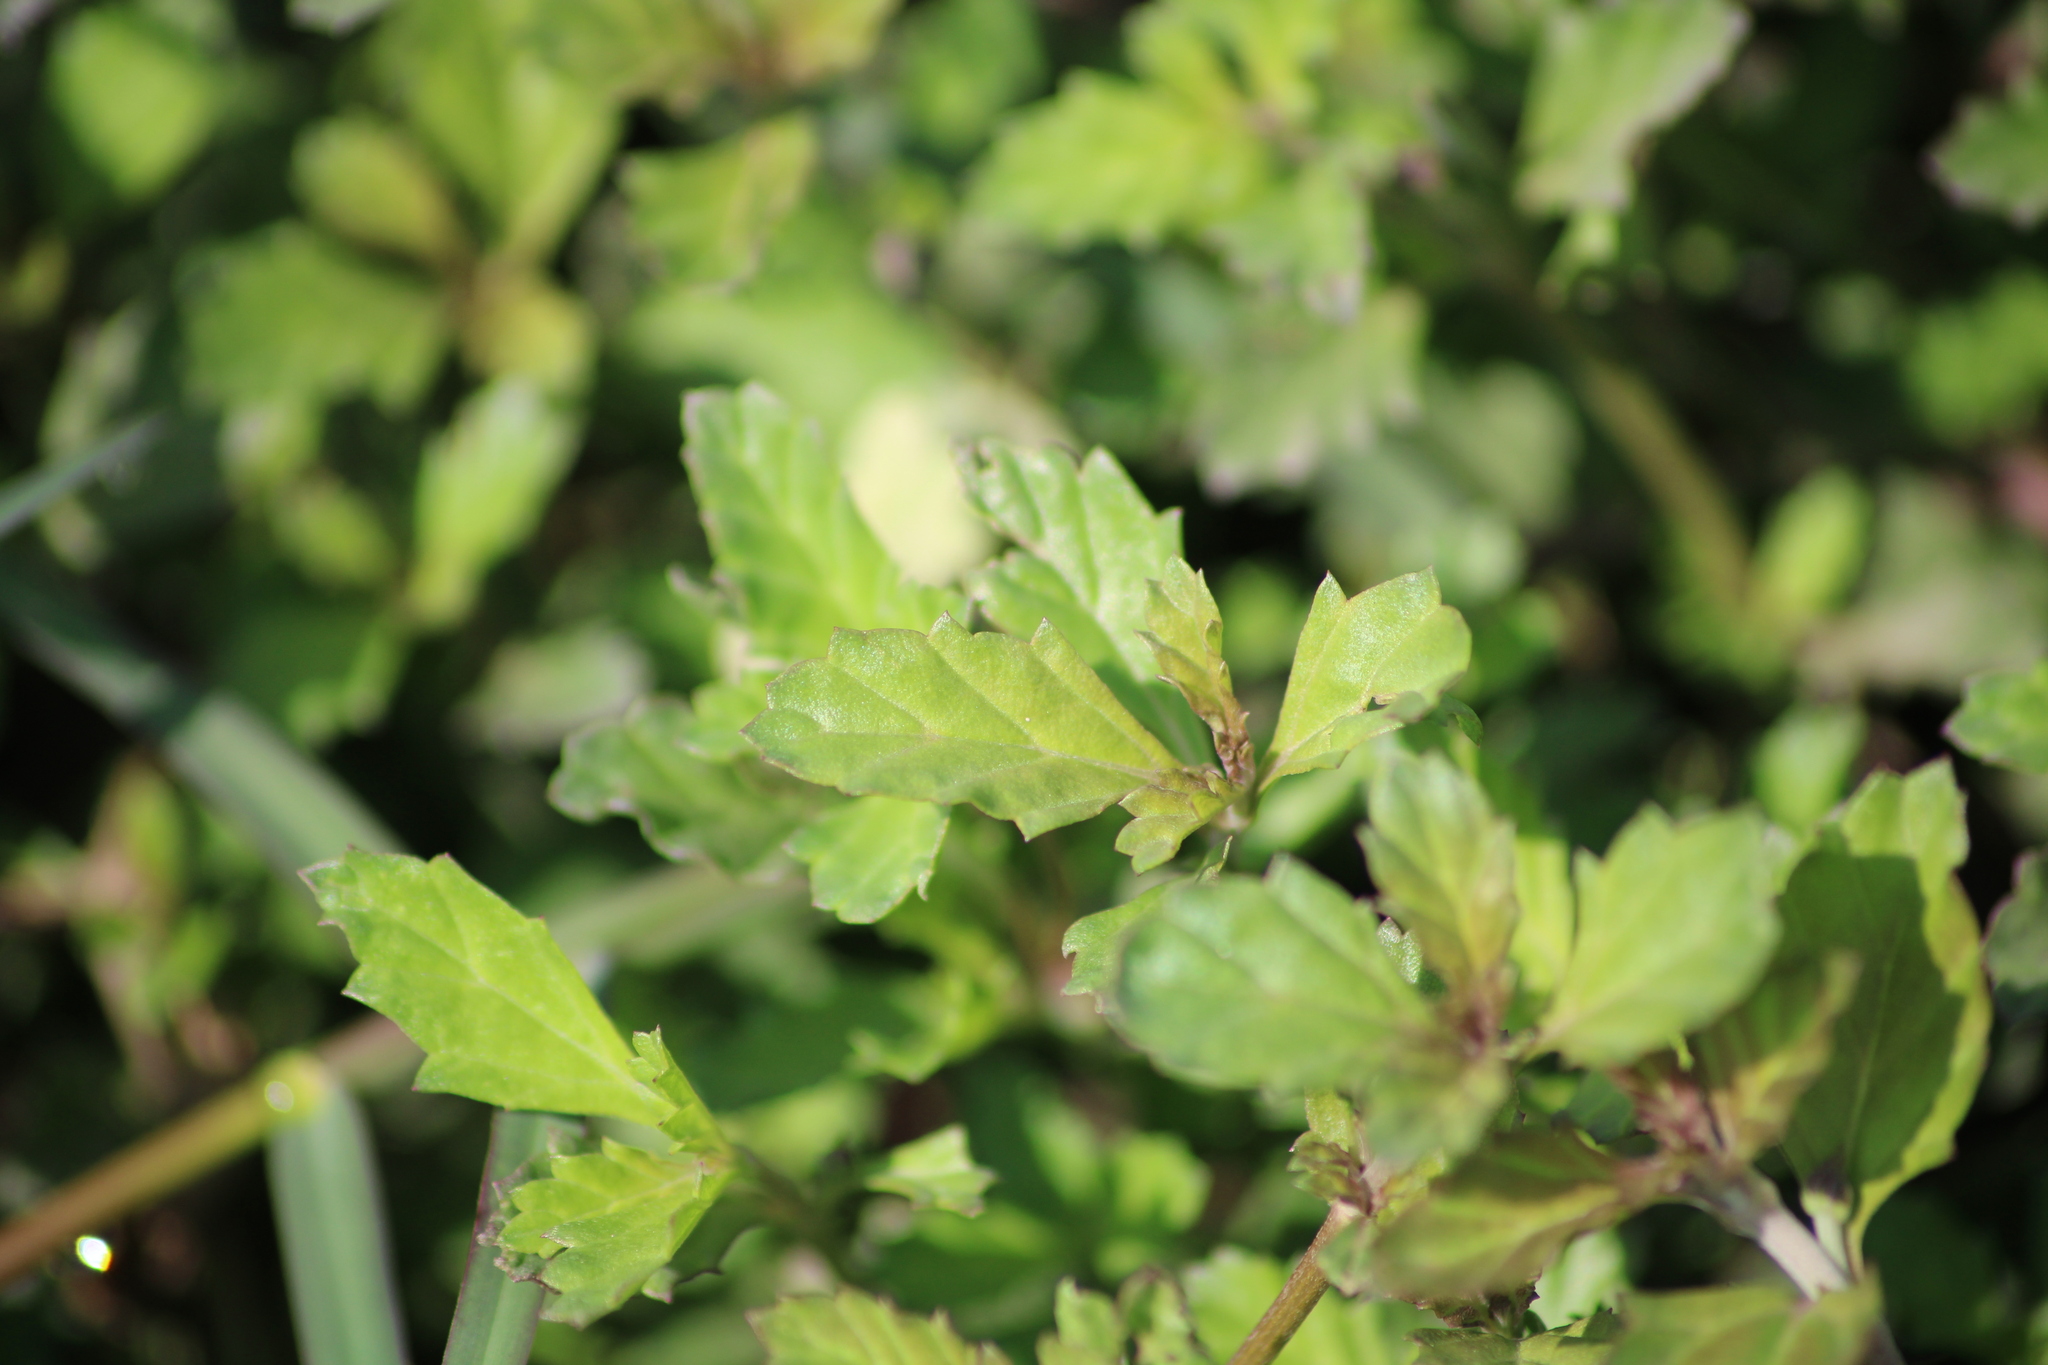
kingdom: Plantae
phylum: Tracheophyta
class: Magnoliopsida
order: Lamiales
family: Verbenaceae
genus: Phyla
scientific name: Phyla nodiflora
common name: Frogfruit
